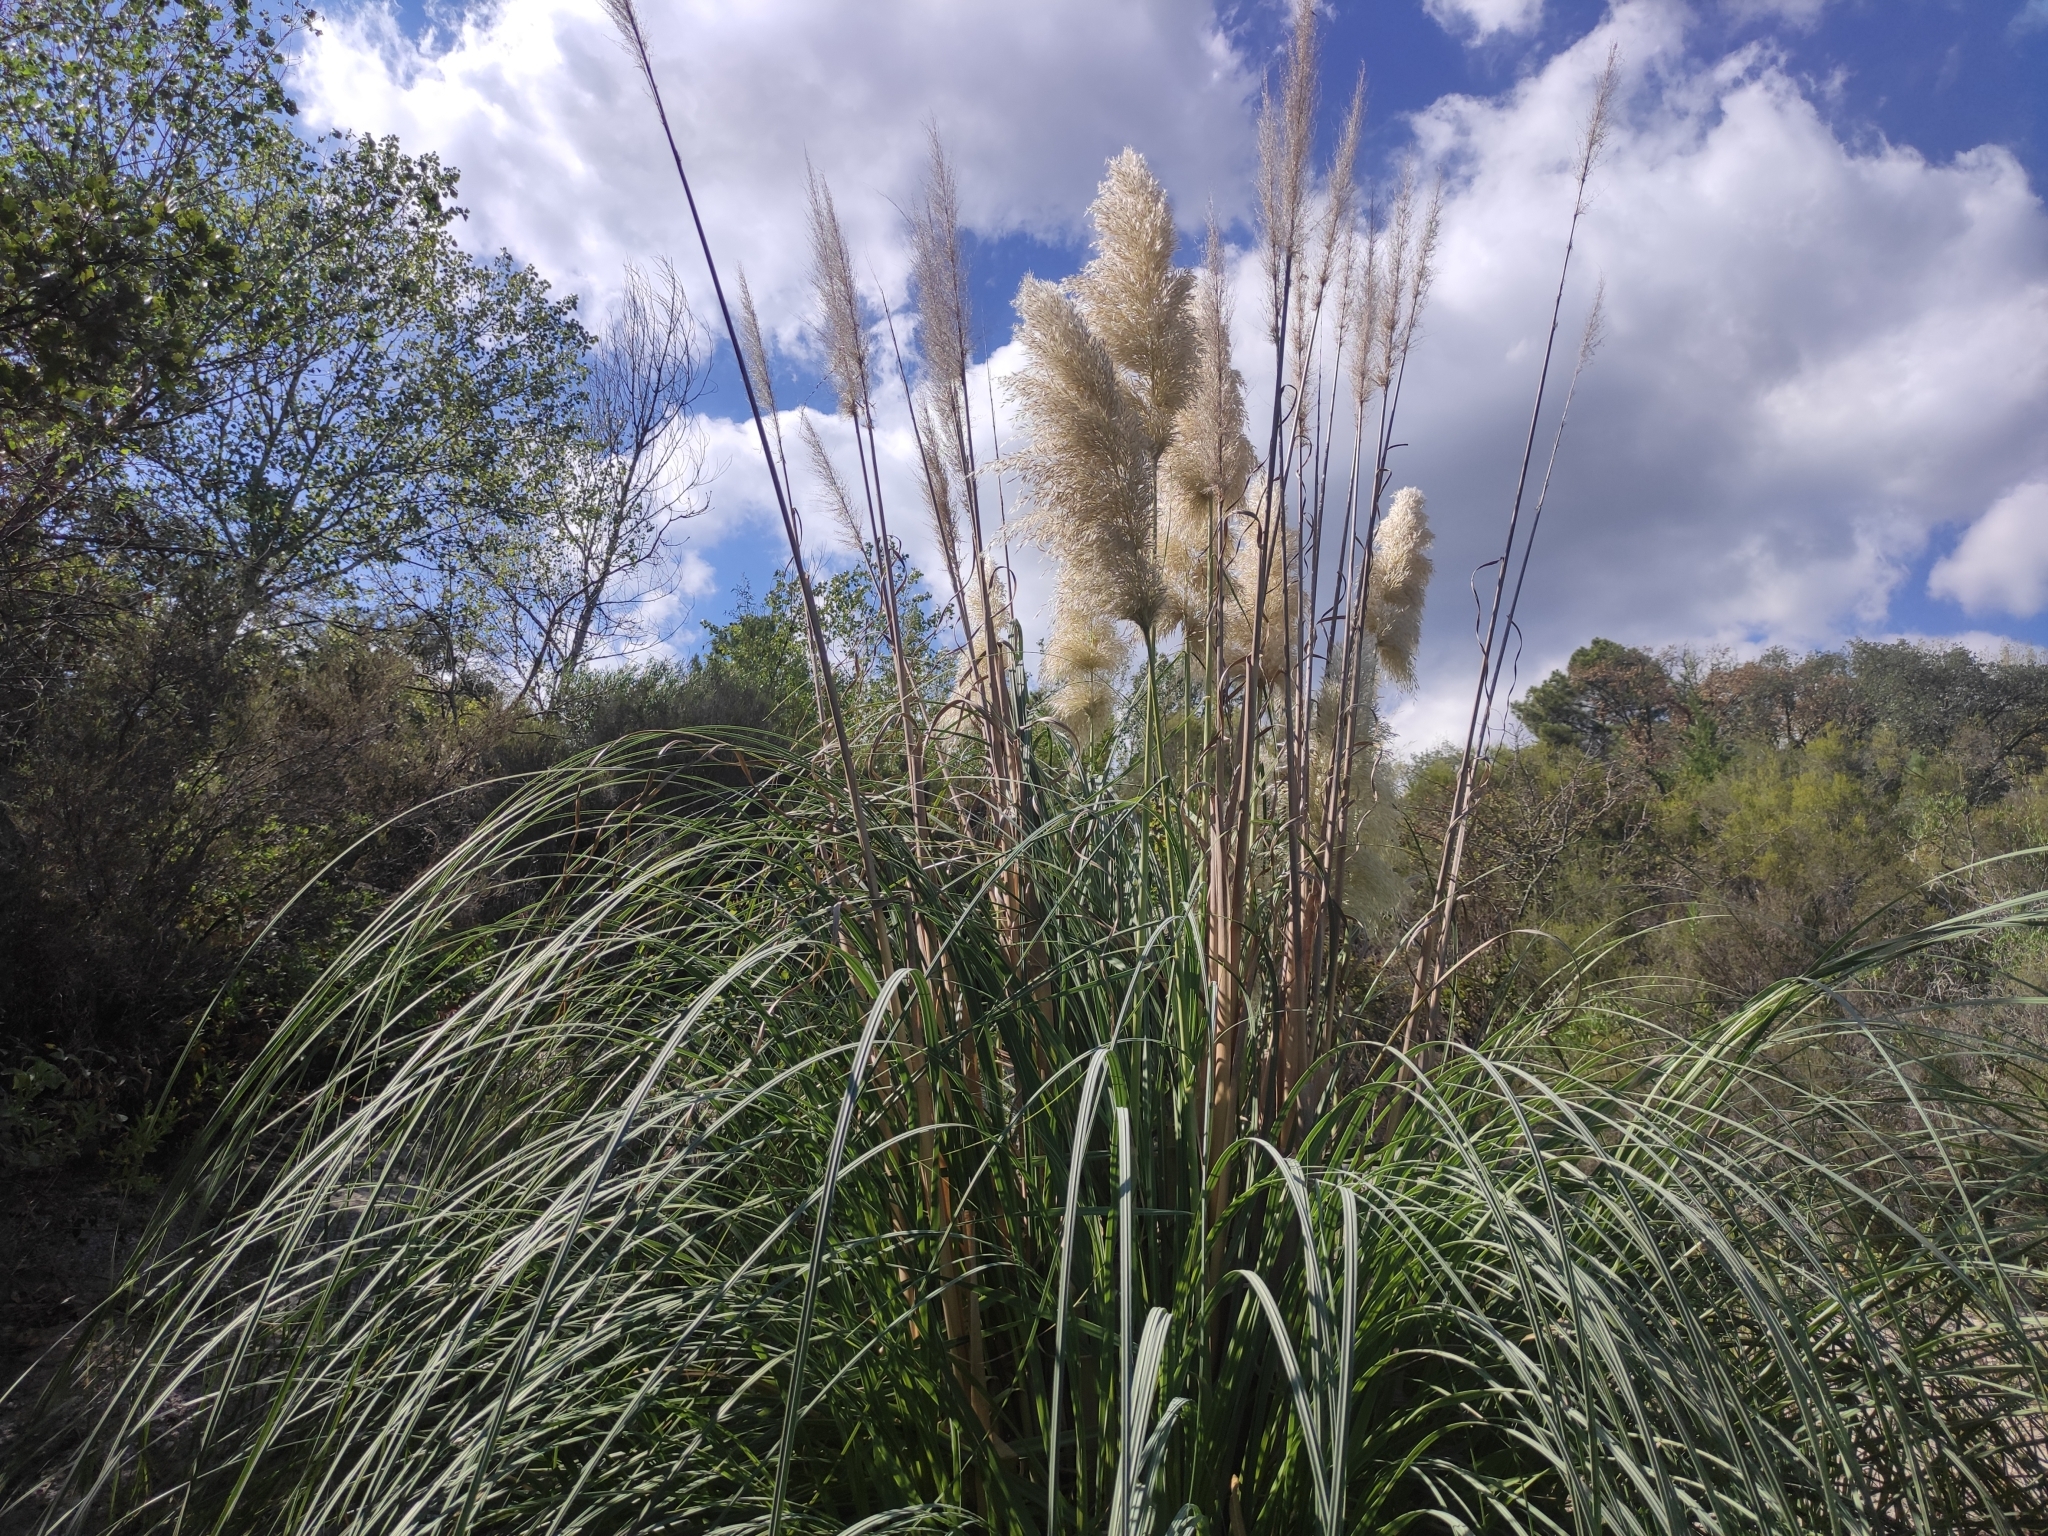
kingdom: Plantae
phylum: Tracheophyta
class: Liliopsida
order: Poales
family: Poaceae
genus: Cortaderia
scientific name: Cortaderia selloana
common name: Uruguayan pampas grass
